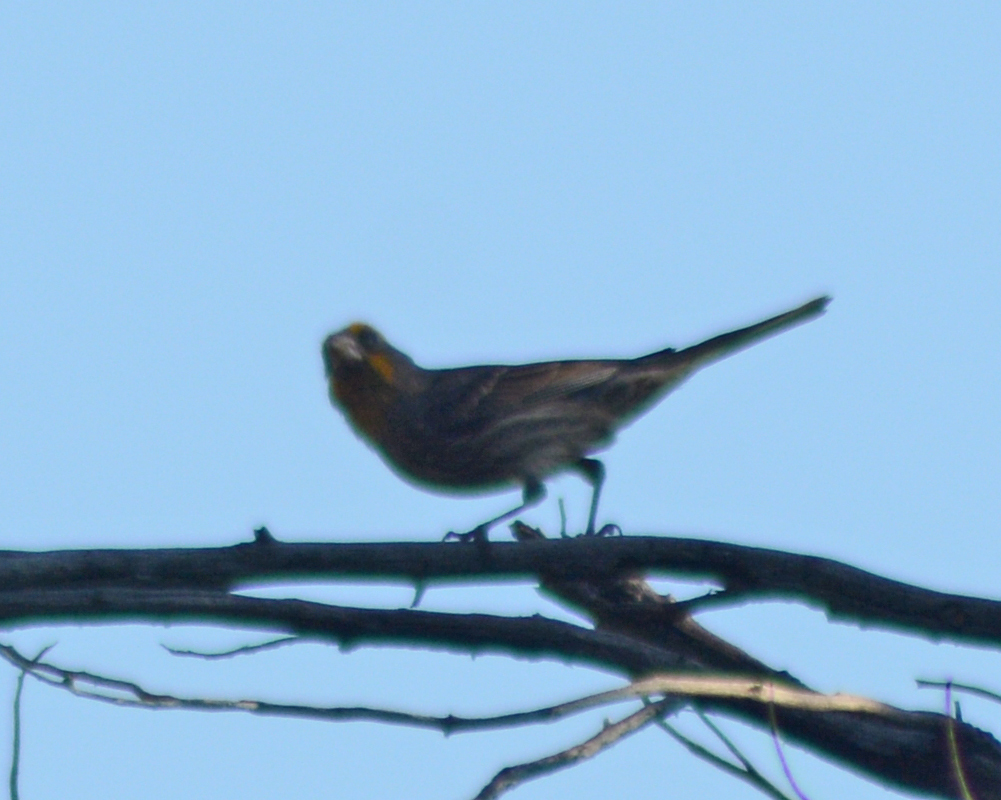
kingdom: Animalia
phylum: Chordata
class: Aves
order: Passeriformes
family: Fringillidae
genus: Haemorhous
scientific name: Haemorhous mexicanus
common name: House finch
